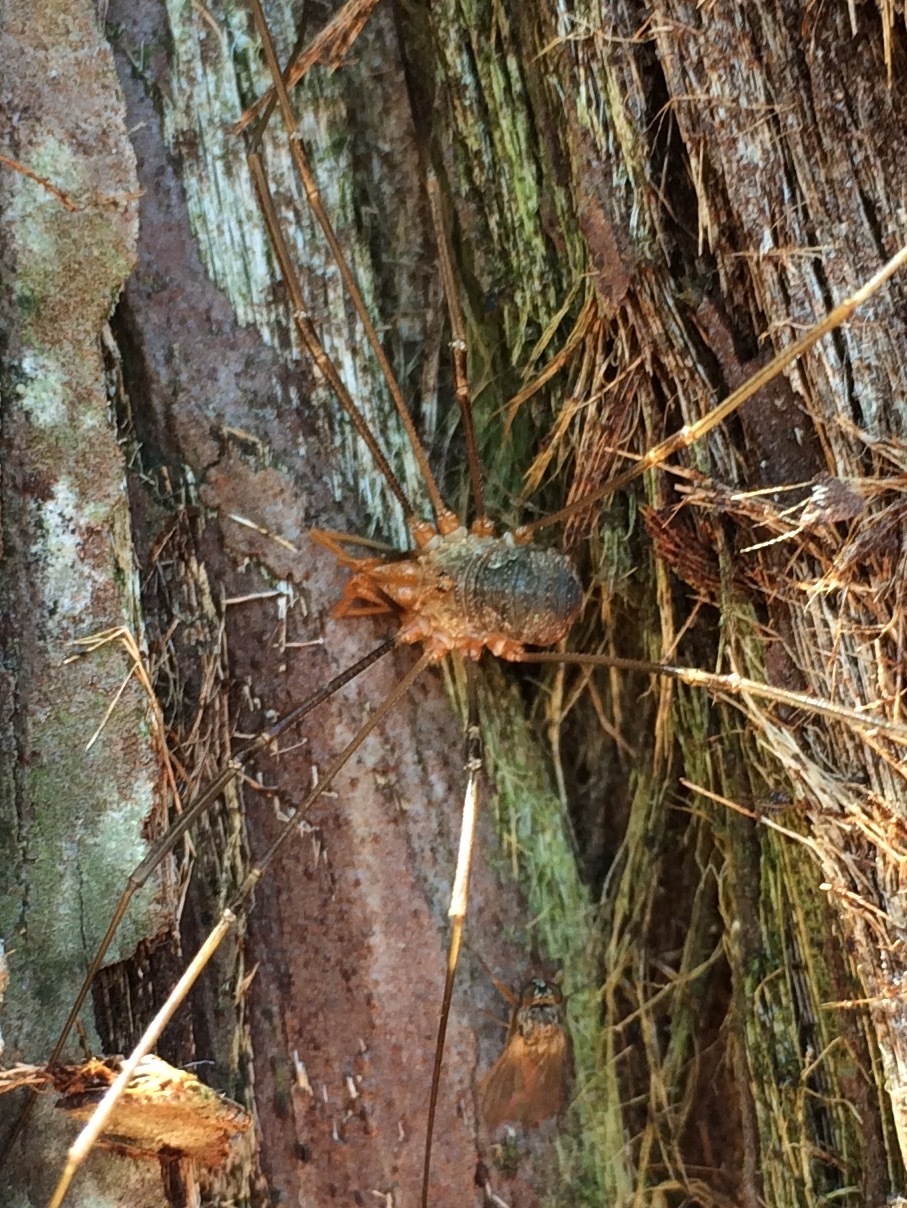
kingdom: Animalia
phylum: Arthropoda
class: Arachnida
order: Opiliones
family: Phalangiidae
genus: Phalangium
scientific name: Phalangium opilio
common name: Daddy longleg
